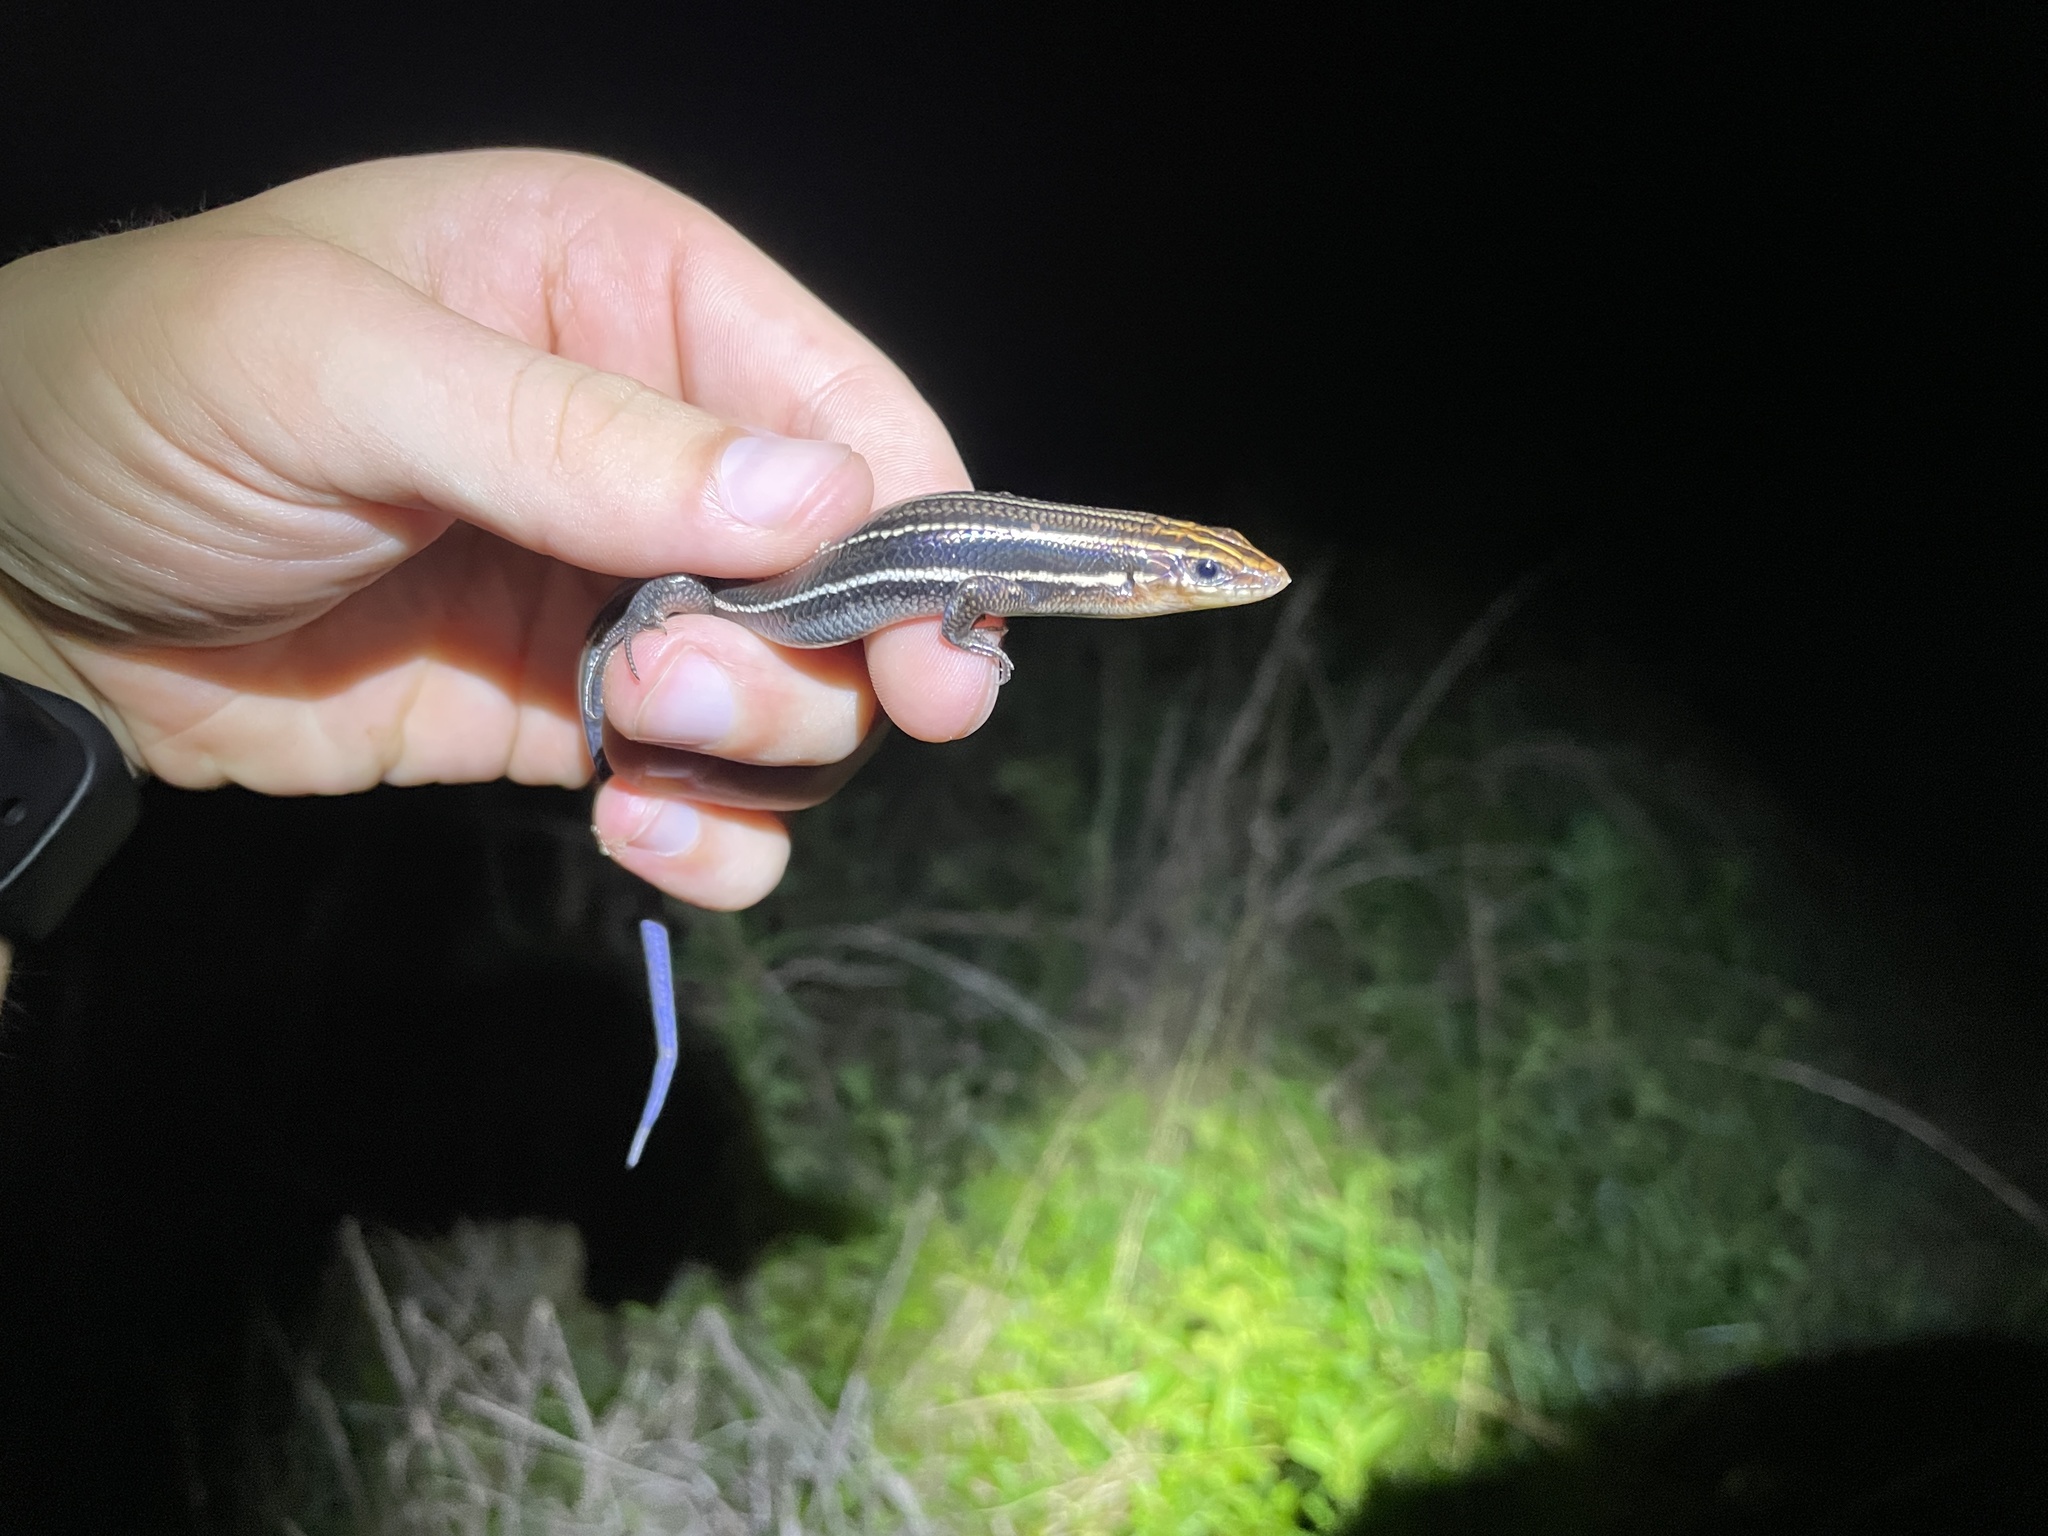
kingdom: Animalia
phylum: Chordata
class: Squamata
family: Scincidae
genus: Plestiodon
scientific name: Plestiodon inexpectatus
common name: Southeastern five-lined skink
